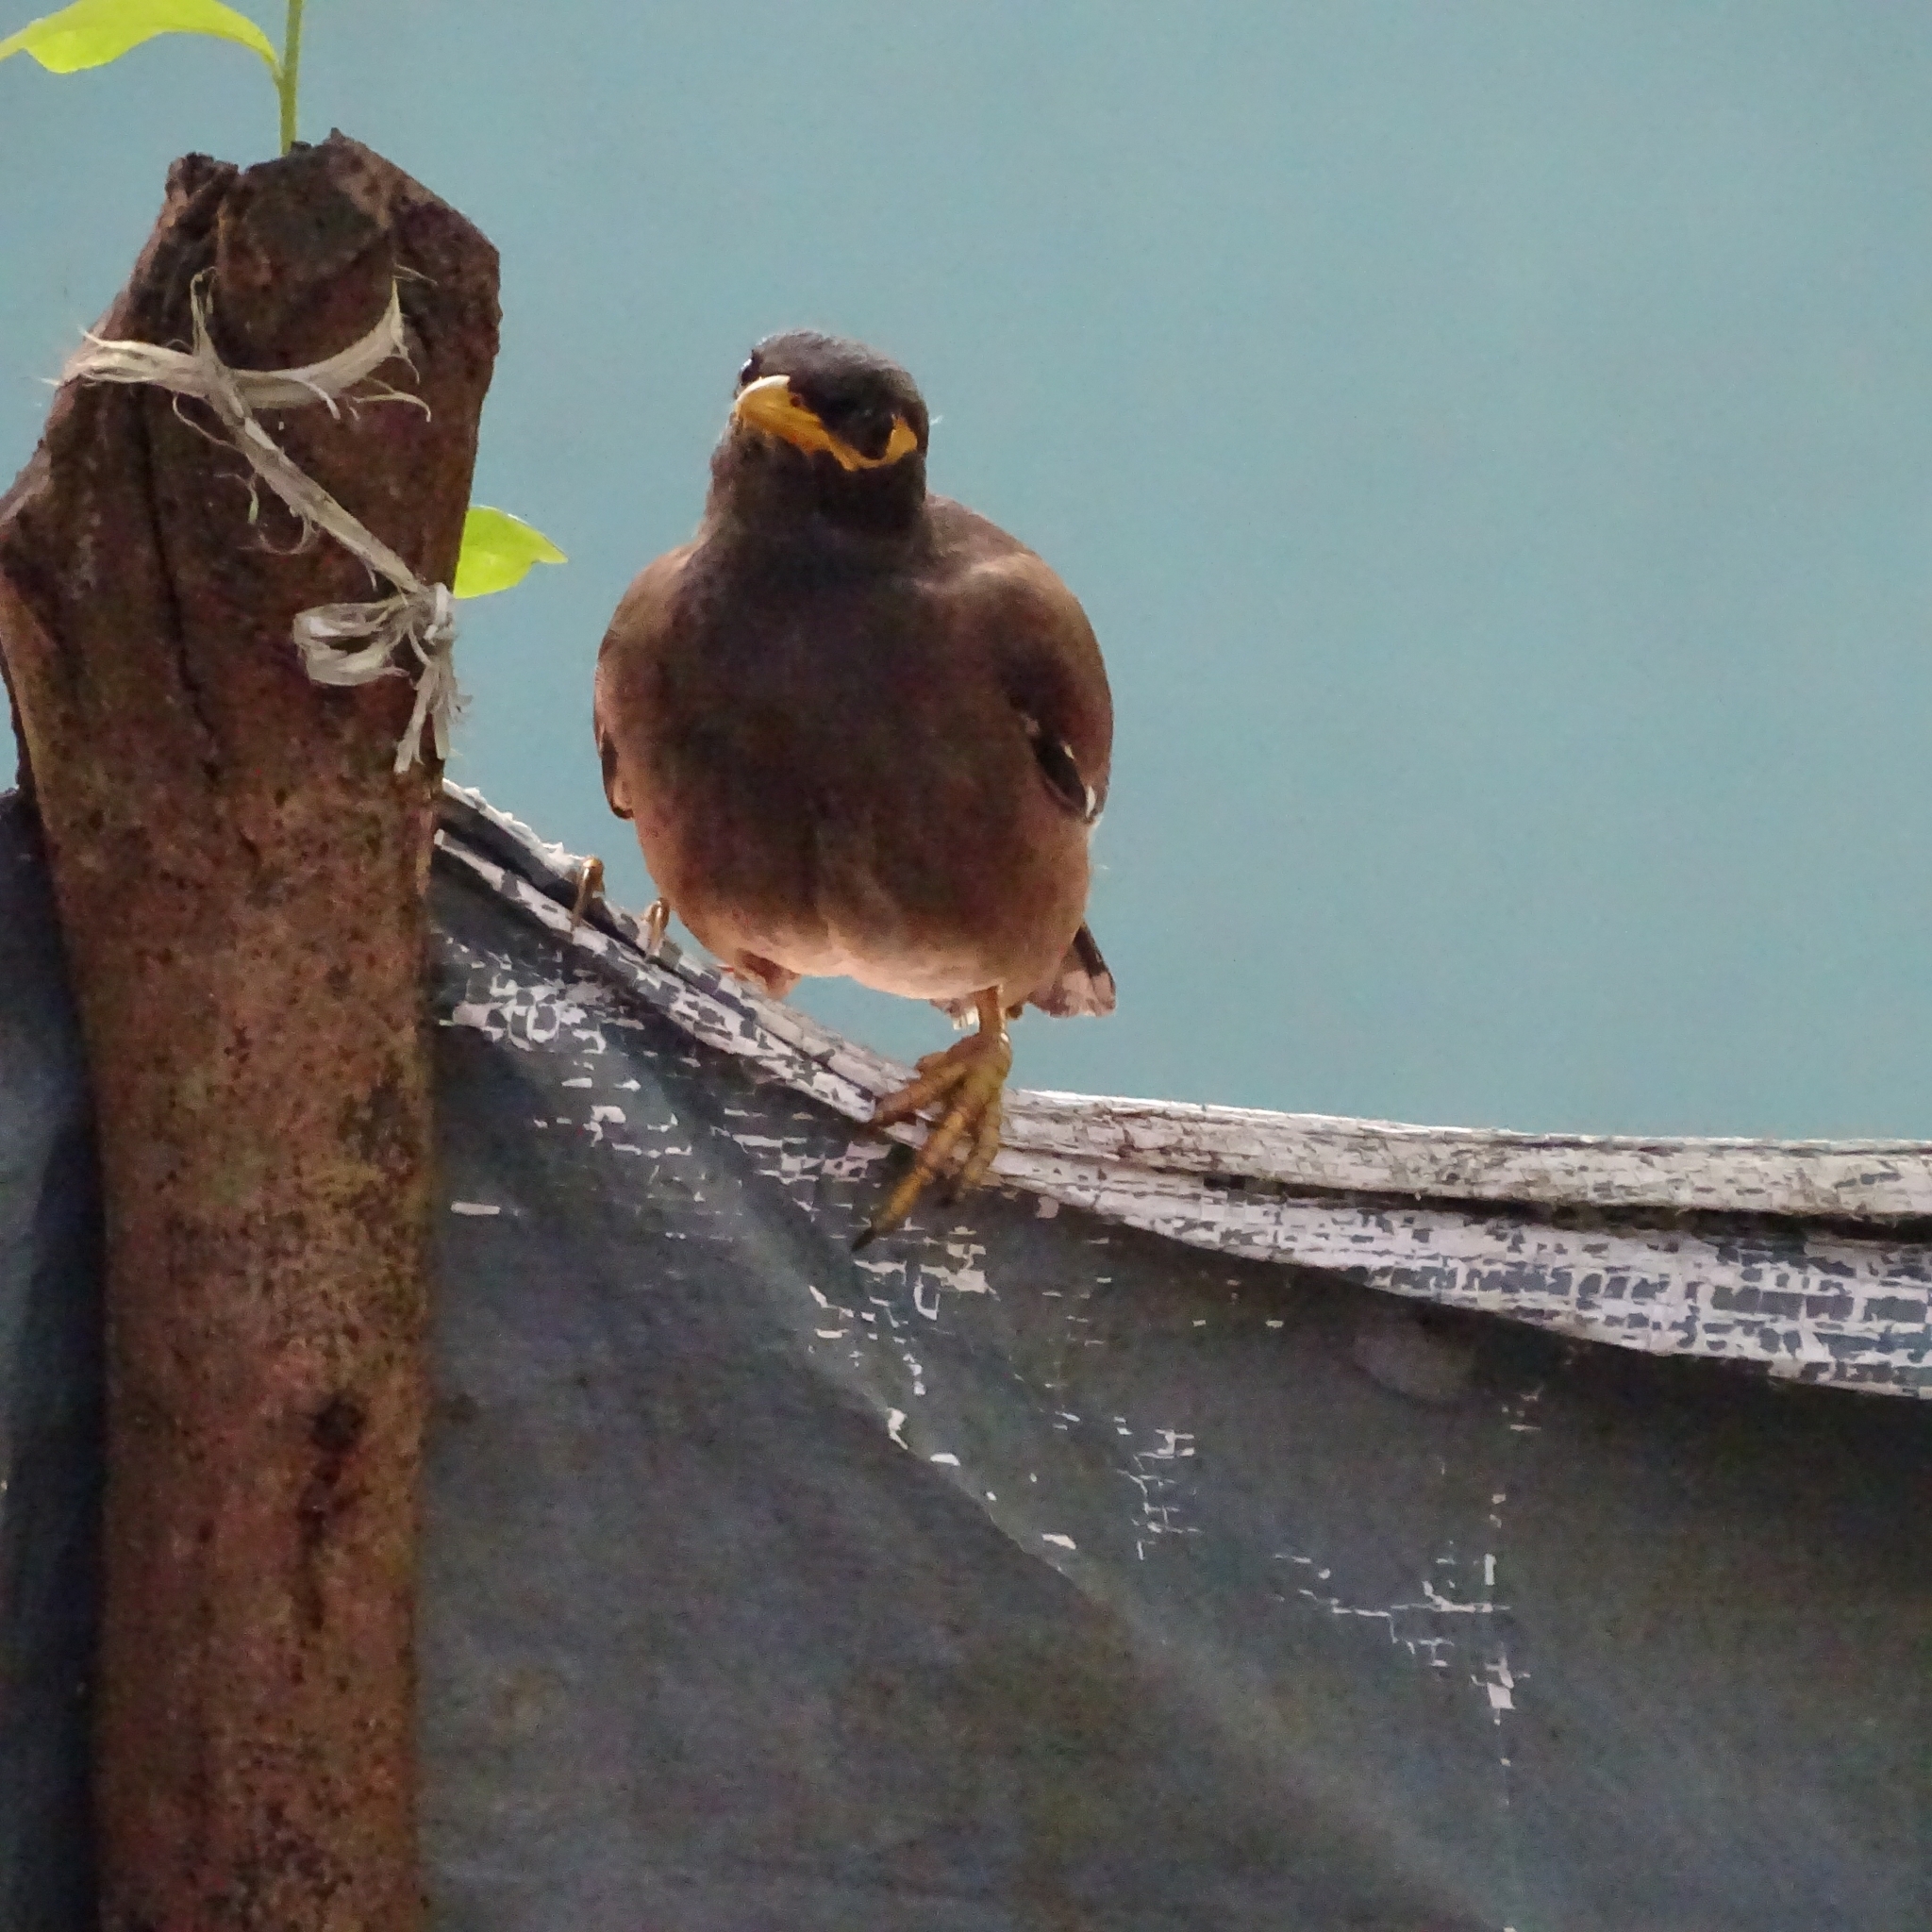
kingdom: Animalia
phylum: Chordata
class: Aves
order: Passeriformes
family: Sturnidae
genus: Acridotheres
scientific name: Acridotheres tristis
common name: Common myna
